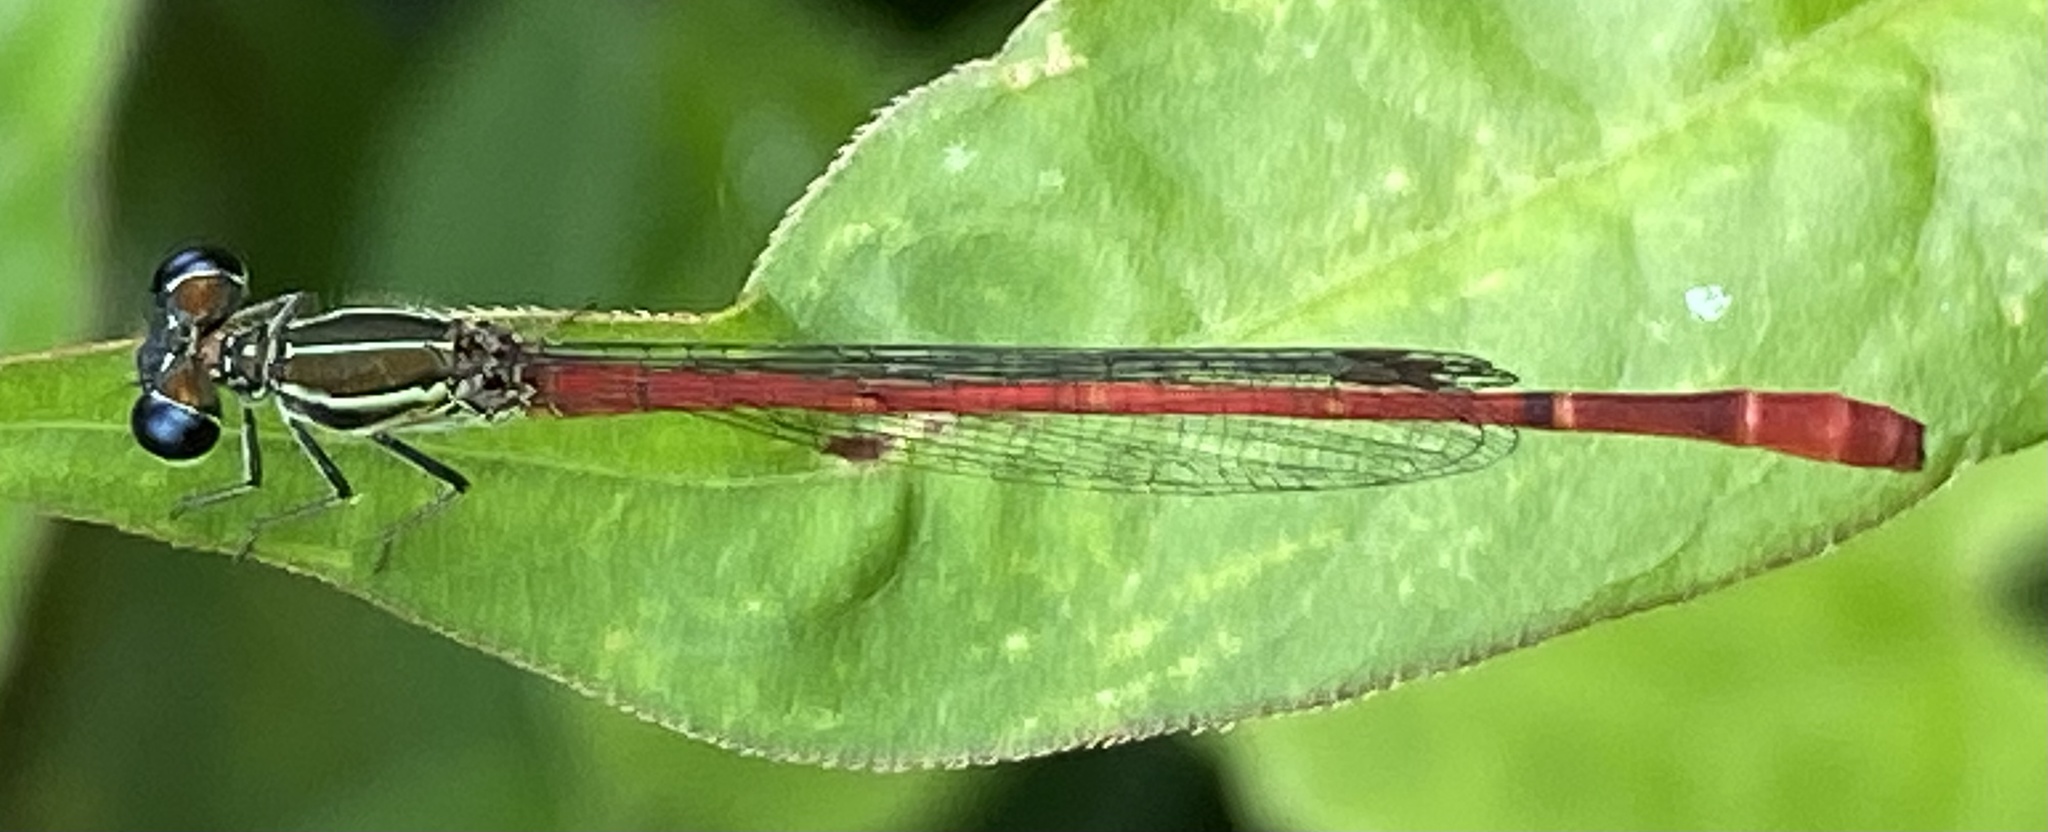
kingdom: Animalia
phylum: Arthropoda
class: Insecta
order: Odonata
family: Coenagrionidae
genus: Telebasis
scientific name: Telebasis filiola
